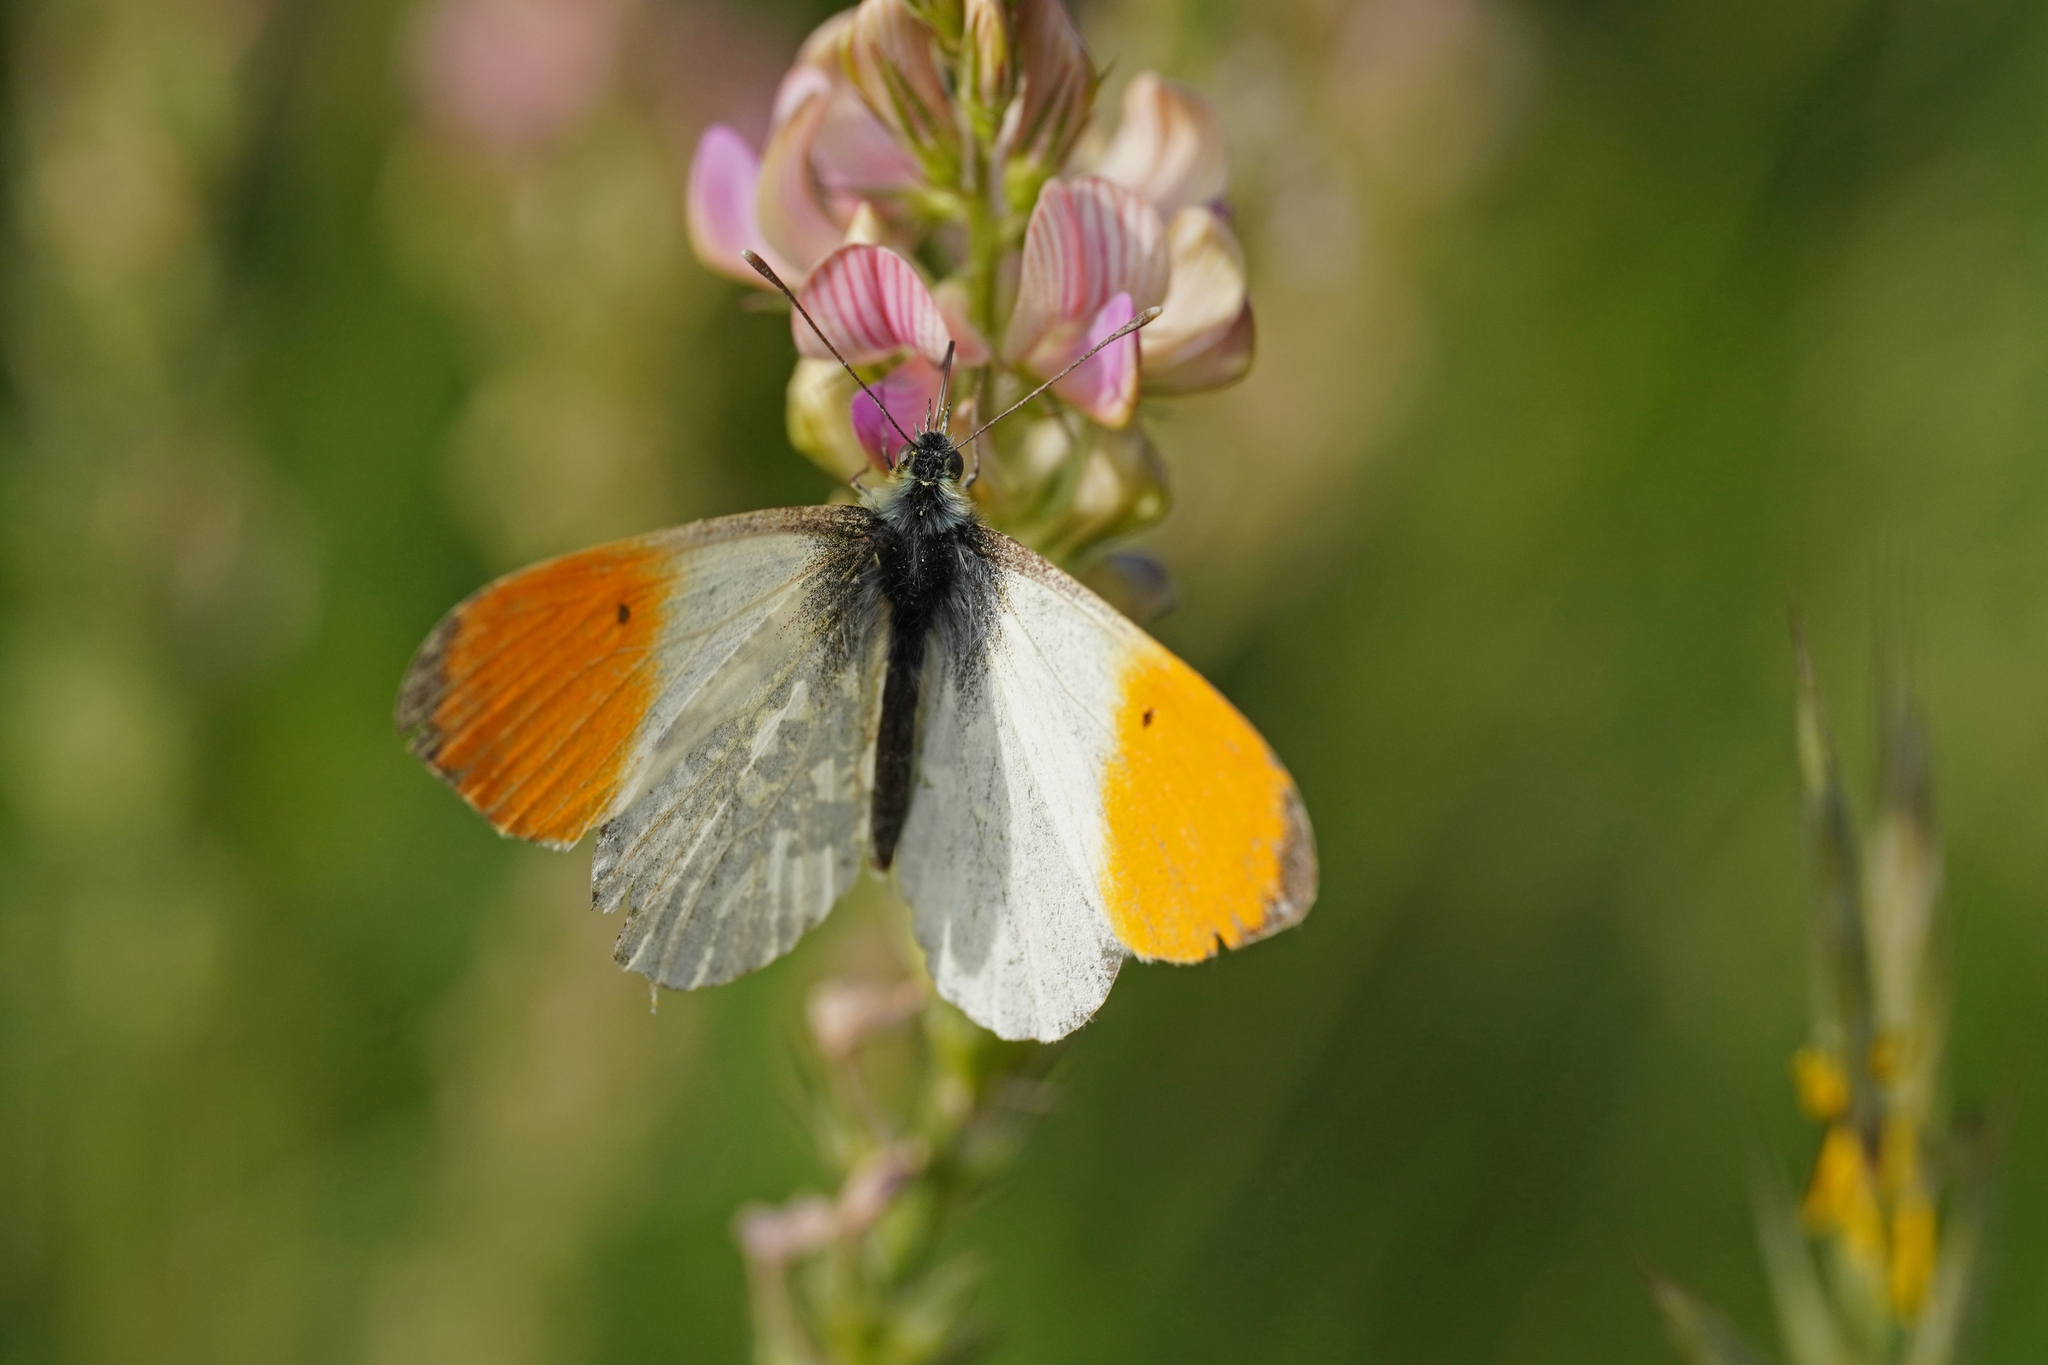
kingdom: Animalia
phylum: Arthropoda
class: Insecta
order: Lepidoptera
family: Pieridae
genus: Anthocharis
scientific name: Anthocharis cardamines
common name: Orange-tip
